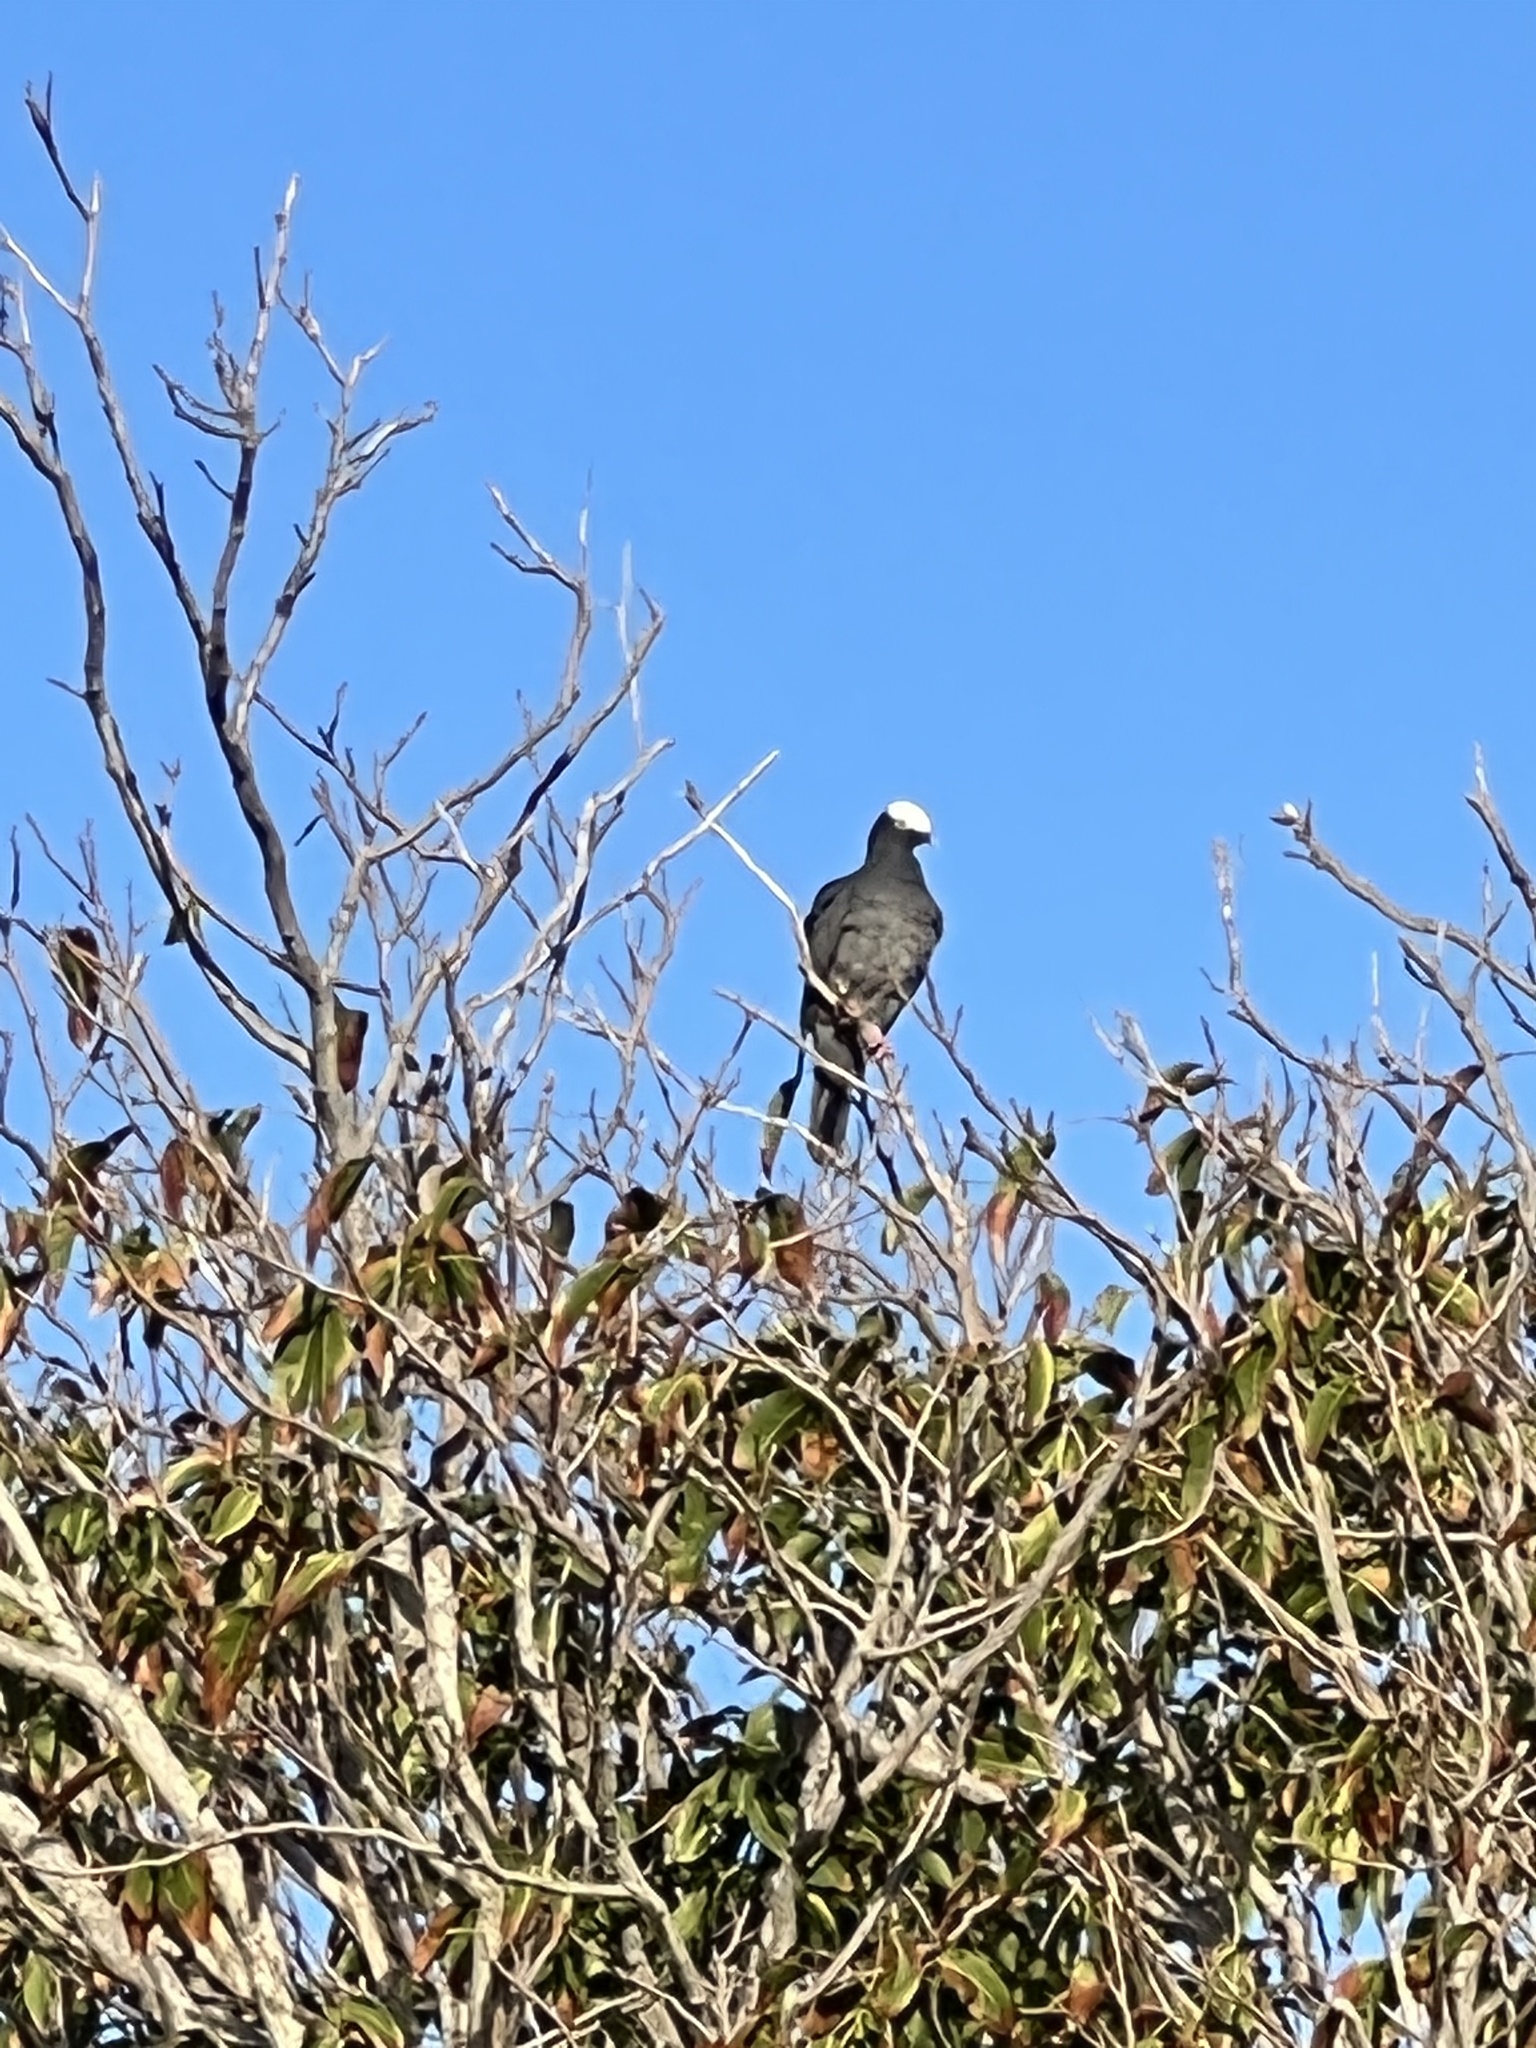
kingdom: Animalia
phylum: Chordata
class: Aves
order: Columbiformes
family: Columbidae
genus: Patagioenas
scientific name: Patagioenas leucocephala
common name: White-crowned pigeon
